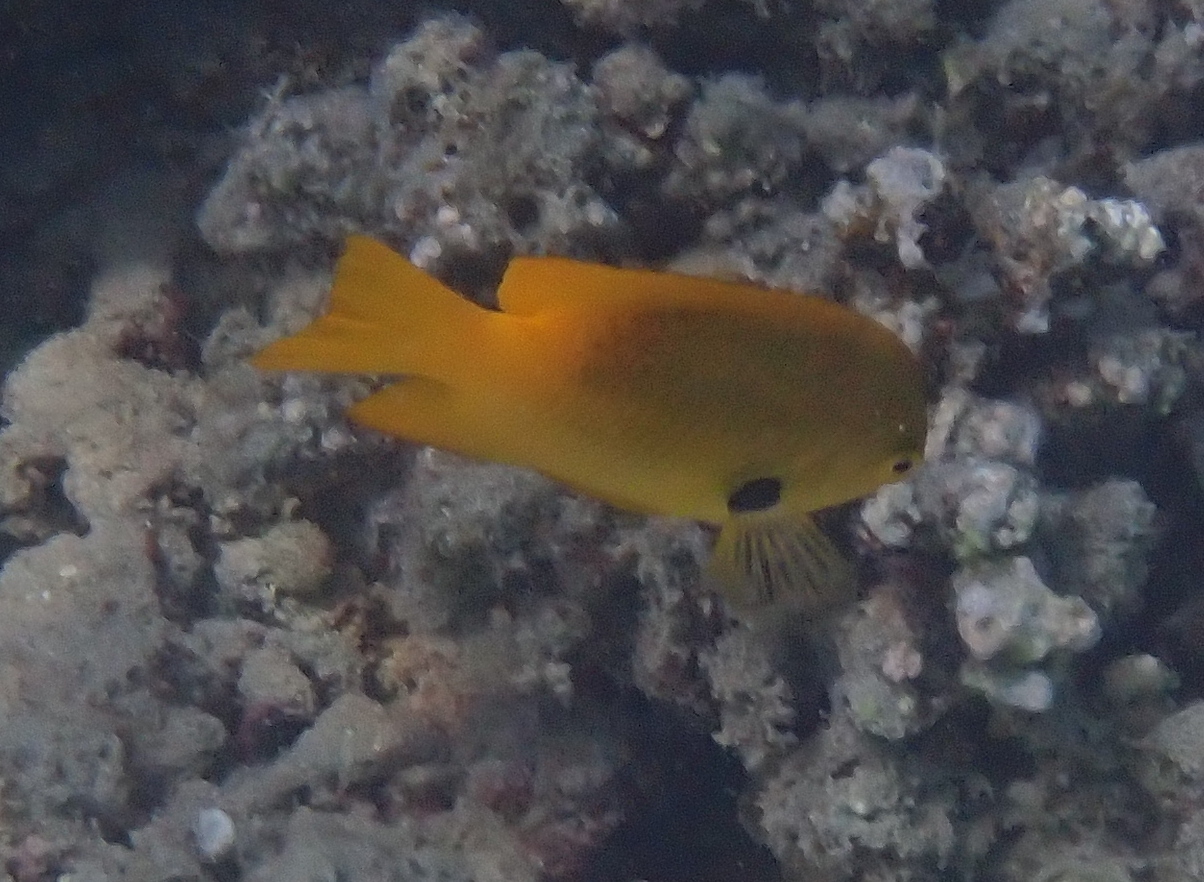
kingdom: Animalia
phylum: Chordata
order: Perciformes
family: Pomacentridae
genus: Pomacentrus
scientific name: Pomacentrus sulfureus
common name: Sulfur damsel
